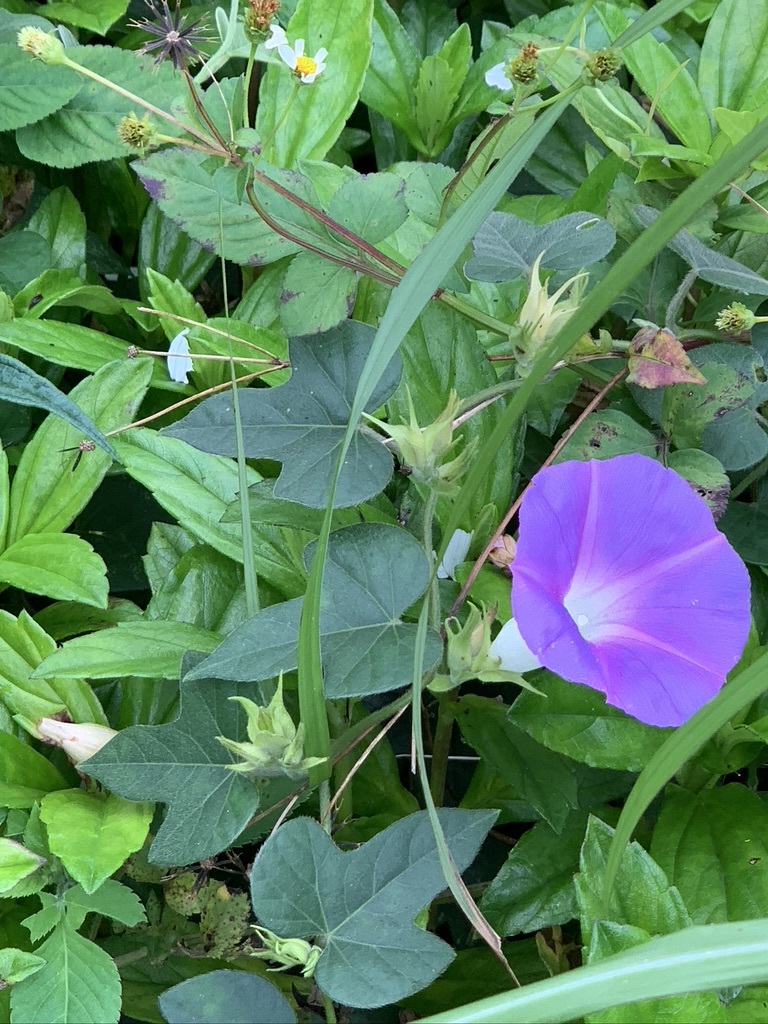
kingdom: Plantae
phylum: Tracheophyta
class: Magnoliopsida
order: Solanales
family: Convolvulaceae
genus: Ipomoea
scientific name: Ipomoea indica
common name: Blue dawnflower
